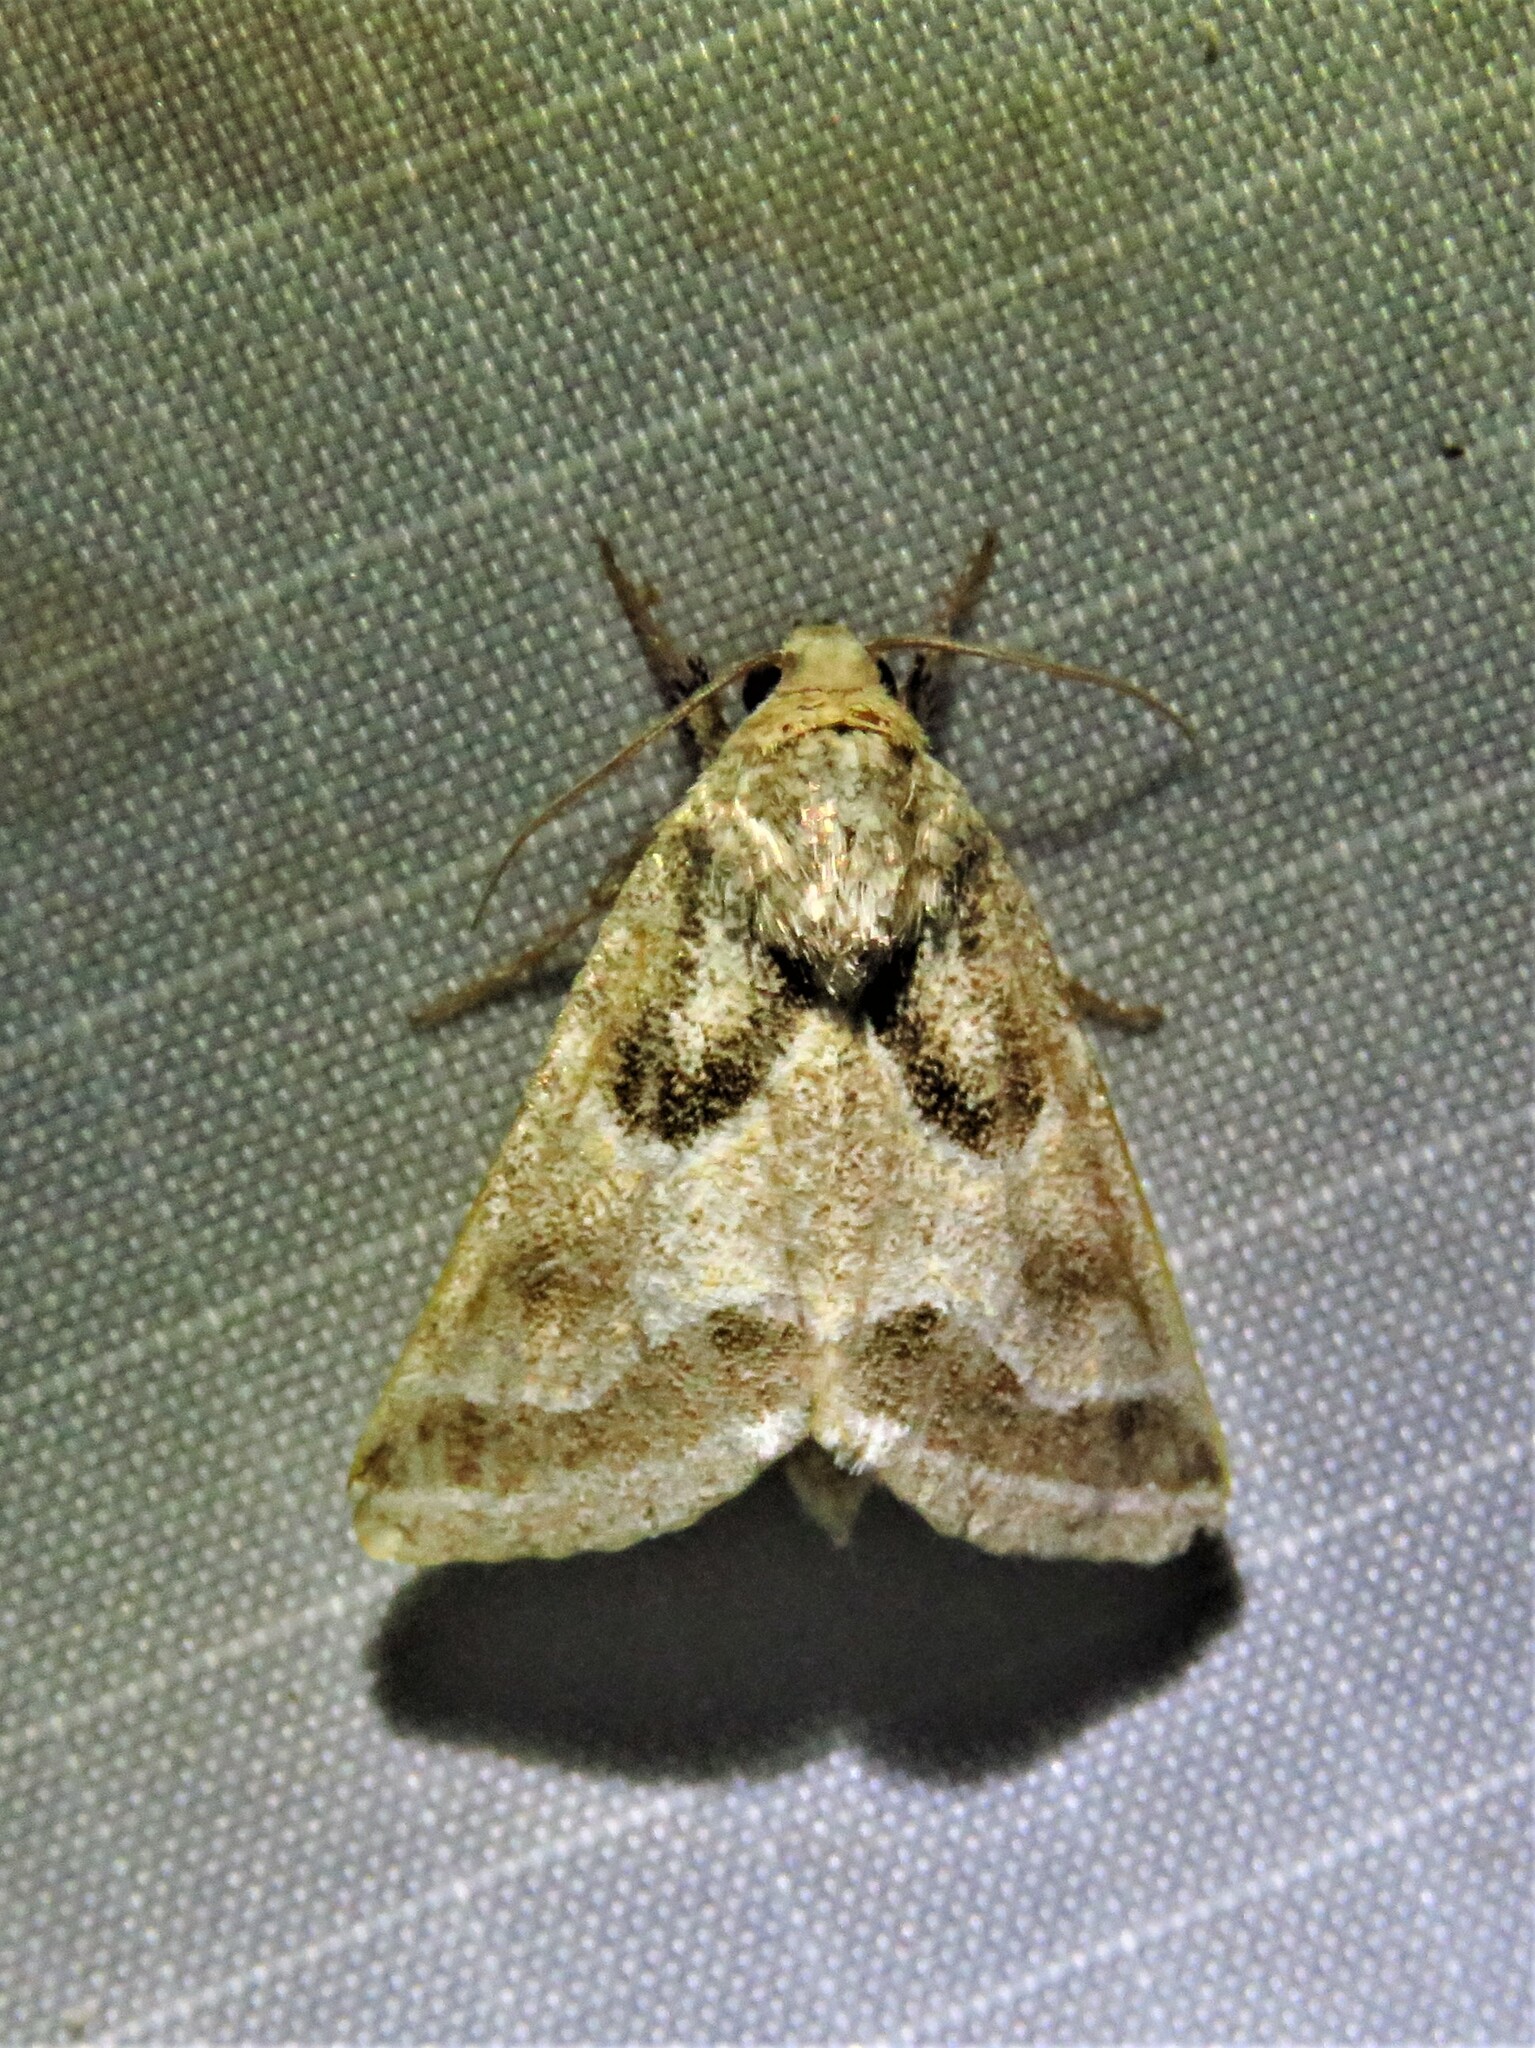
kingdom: Animalia
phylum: Arthropoda
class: Insecta
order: Lepidoptera
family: Noctuidae
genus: Schinia
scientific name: Schinia rivulosa
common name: Scarce meal-moth
